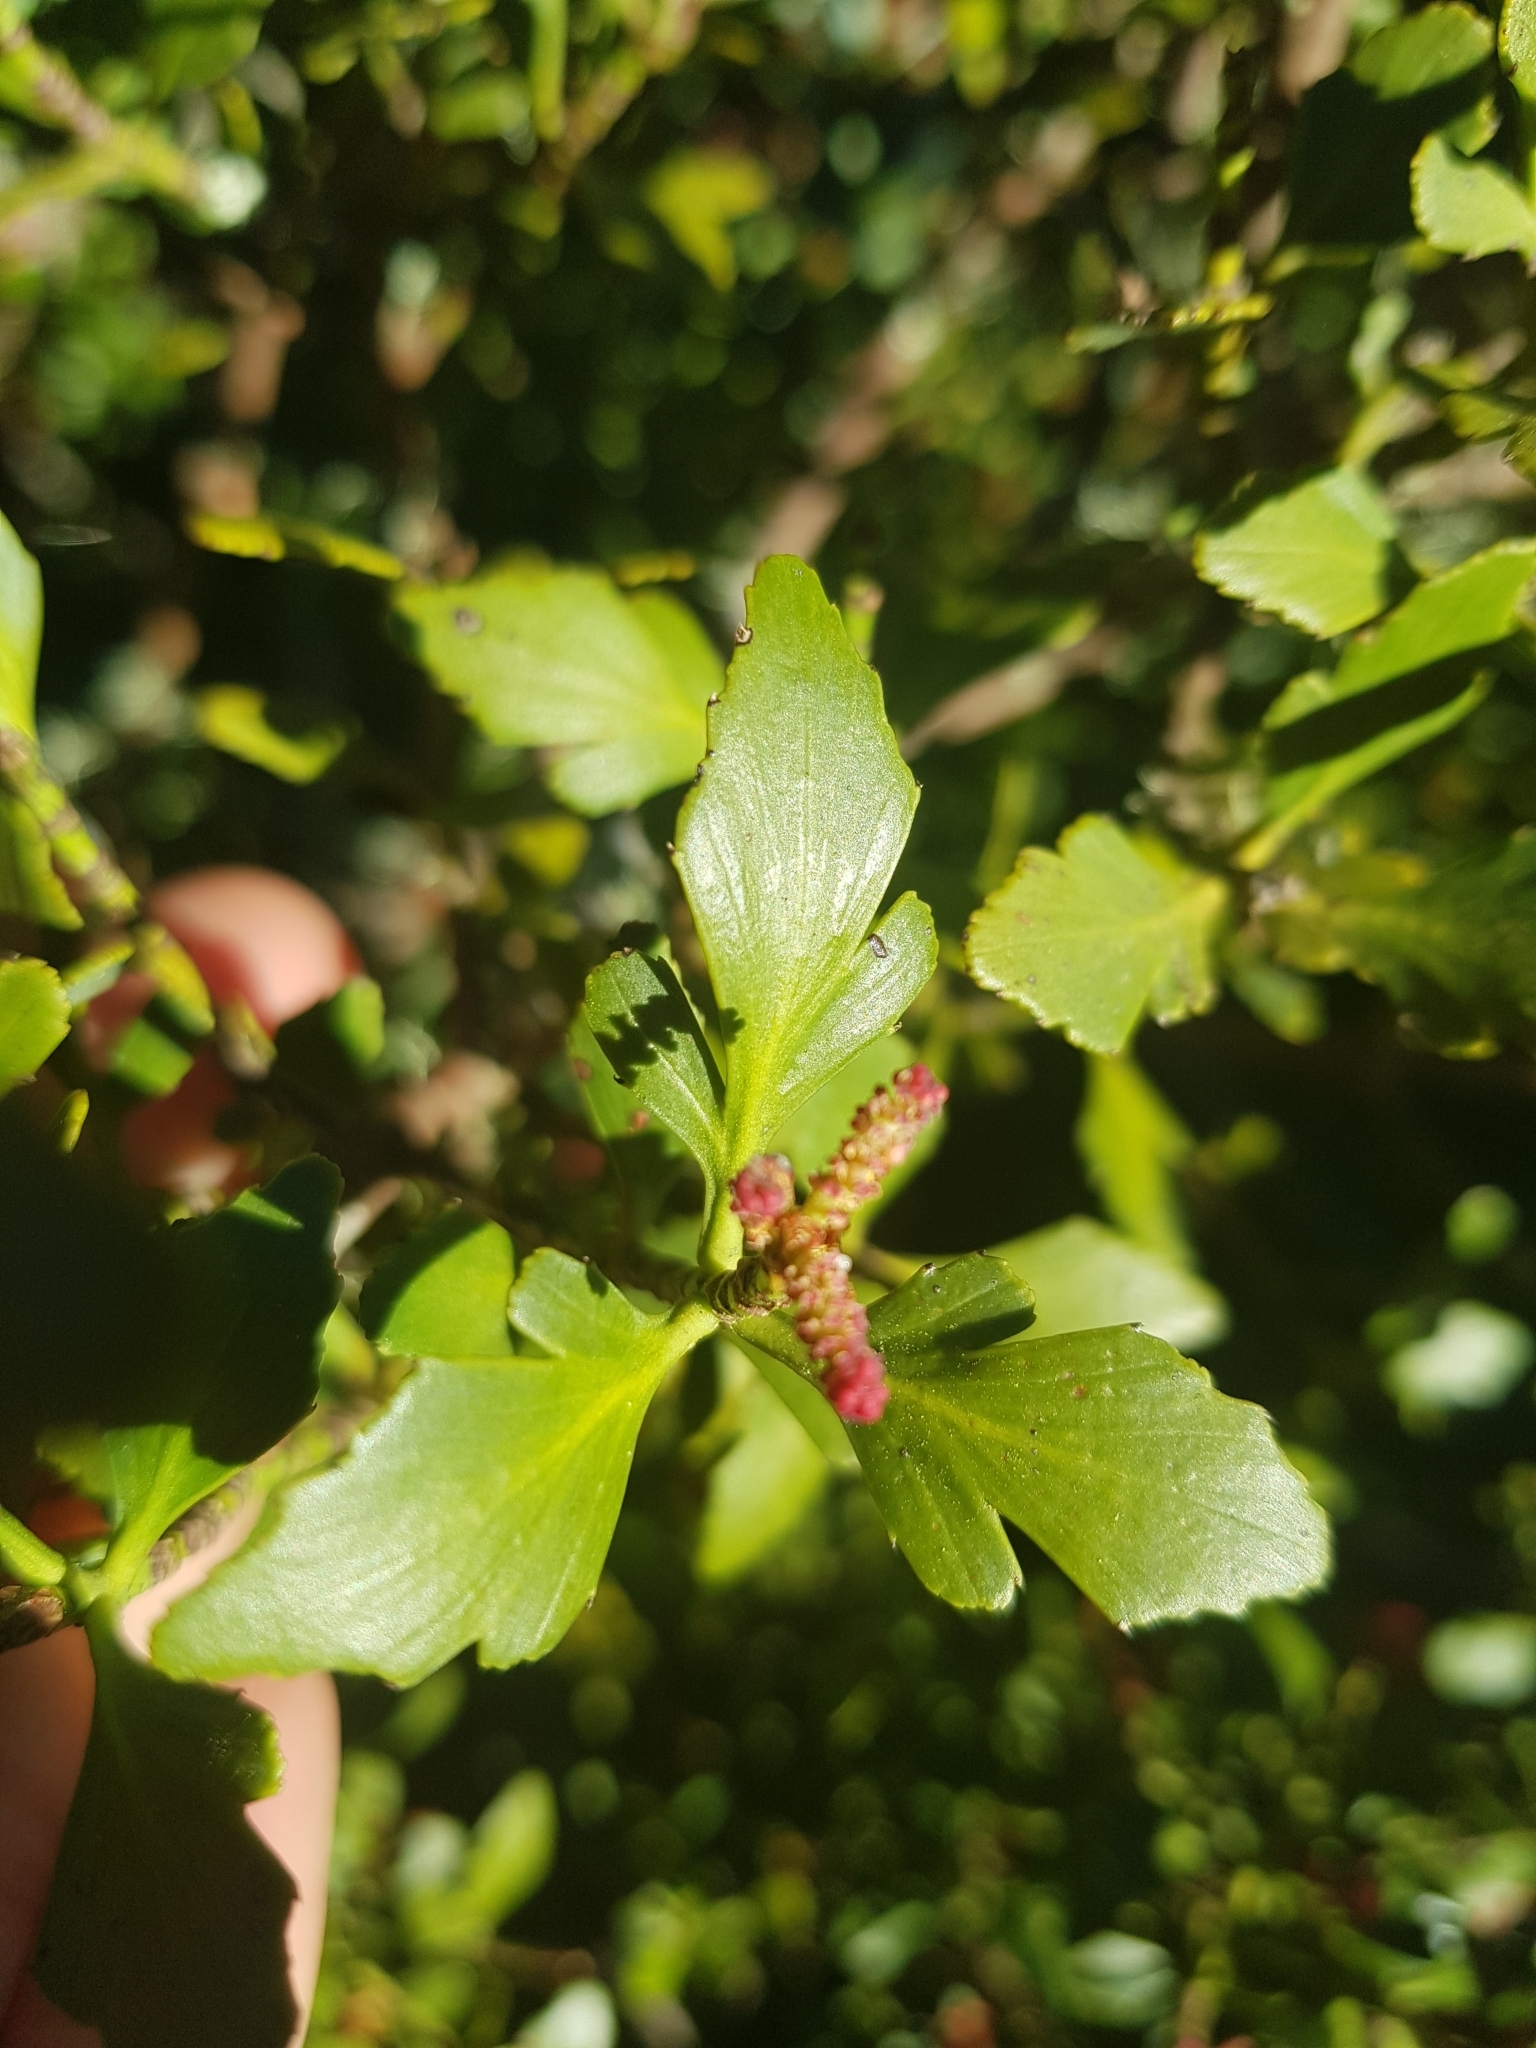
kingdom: Plantae
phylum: Tracheophyta
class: Pinopsida
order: Pinales
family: Phyllocladaceae
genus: Phyllocladus
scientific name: Phyllocladus trichomanoides
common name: Celery pine
